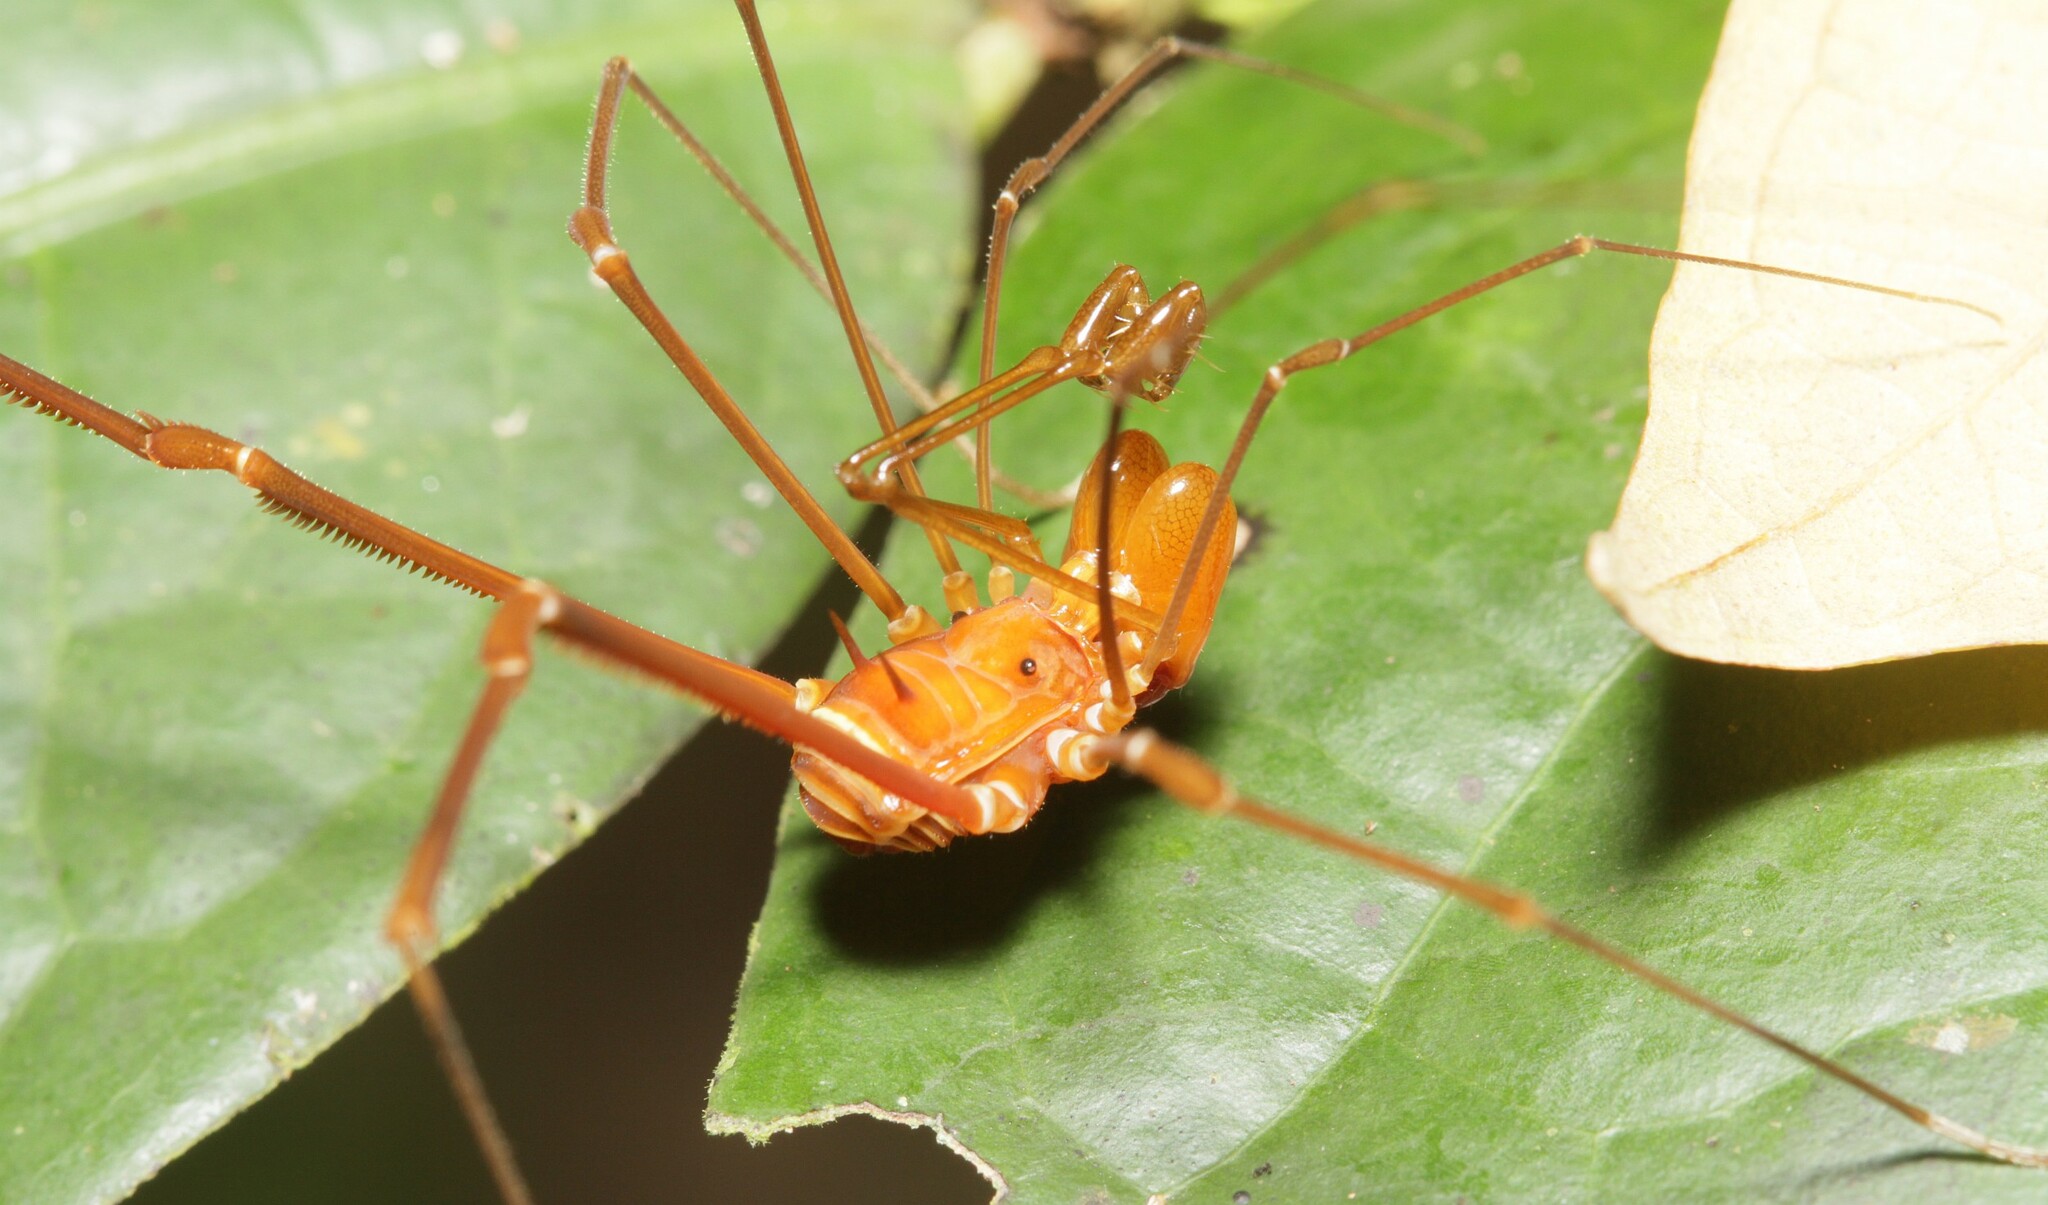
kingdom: Animalia
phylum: Arthropoda
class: Arachnida
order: Opiliones
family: Stygnidae
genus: Obidosus
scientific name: Obidosus boibumba
